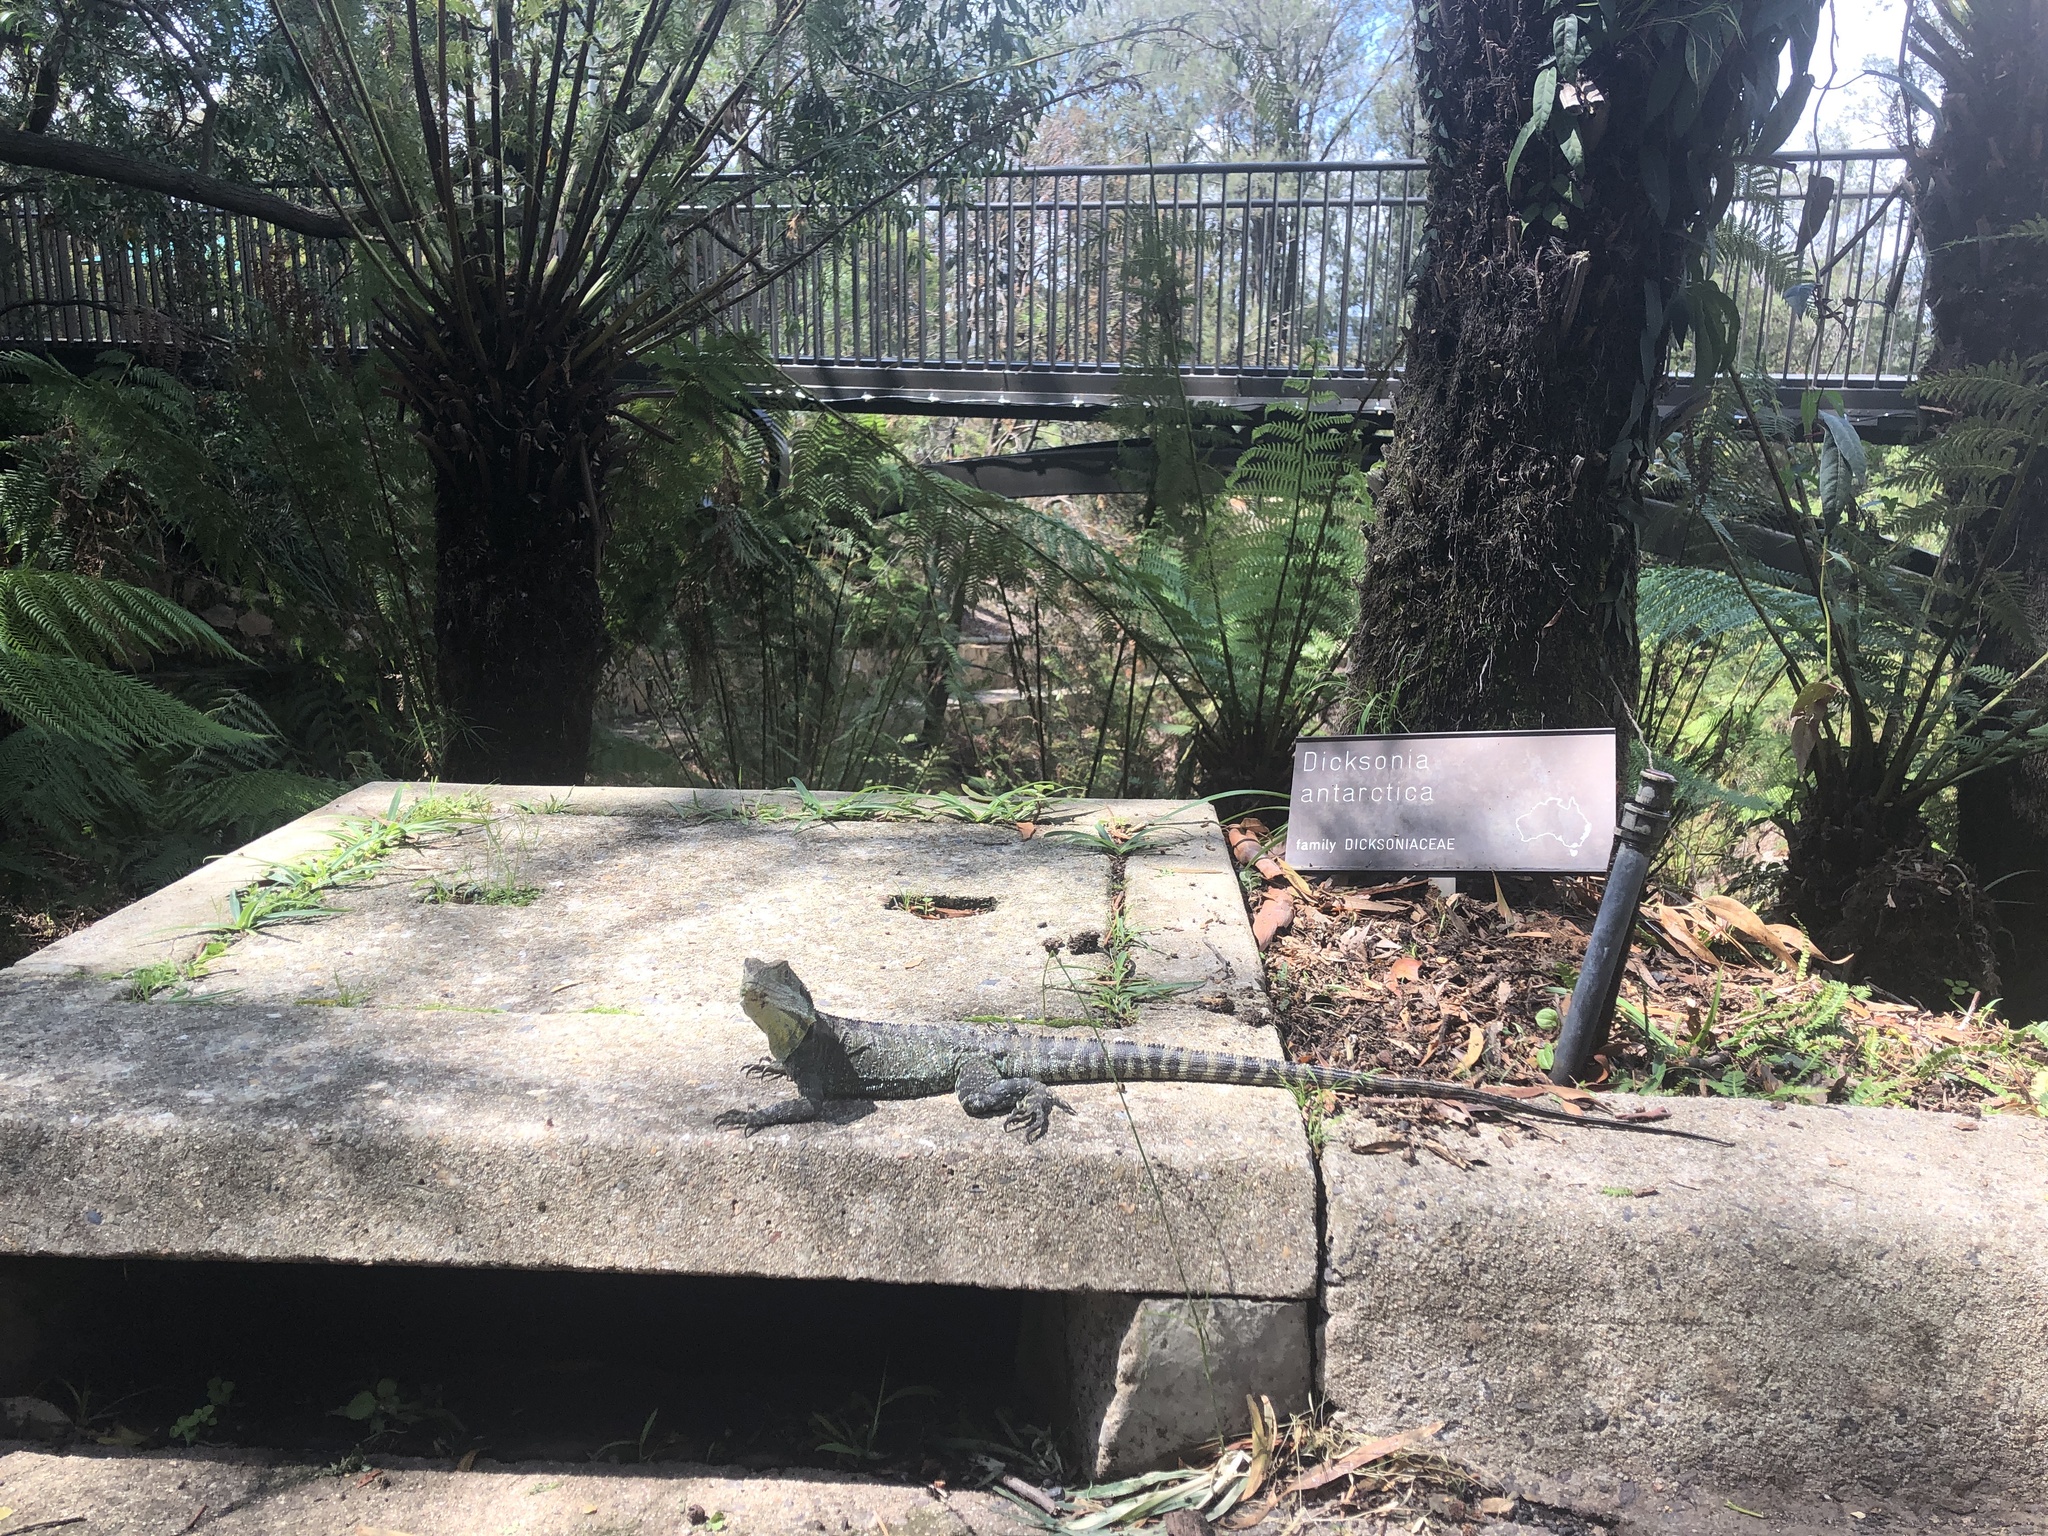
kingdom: Animalia
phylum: Chordata
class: Squamata
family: Agamidae
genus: Intellagama
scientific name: Intellagama lesueurii
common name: Eastern water dragon
